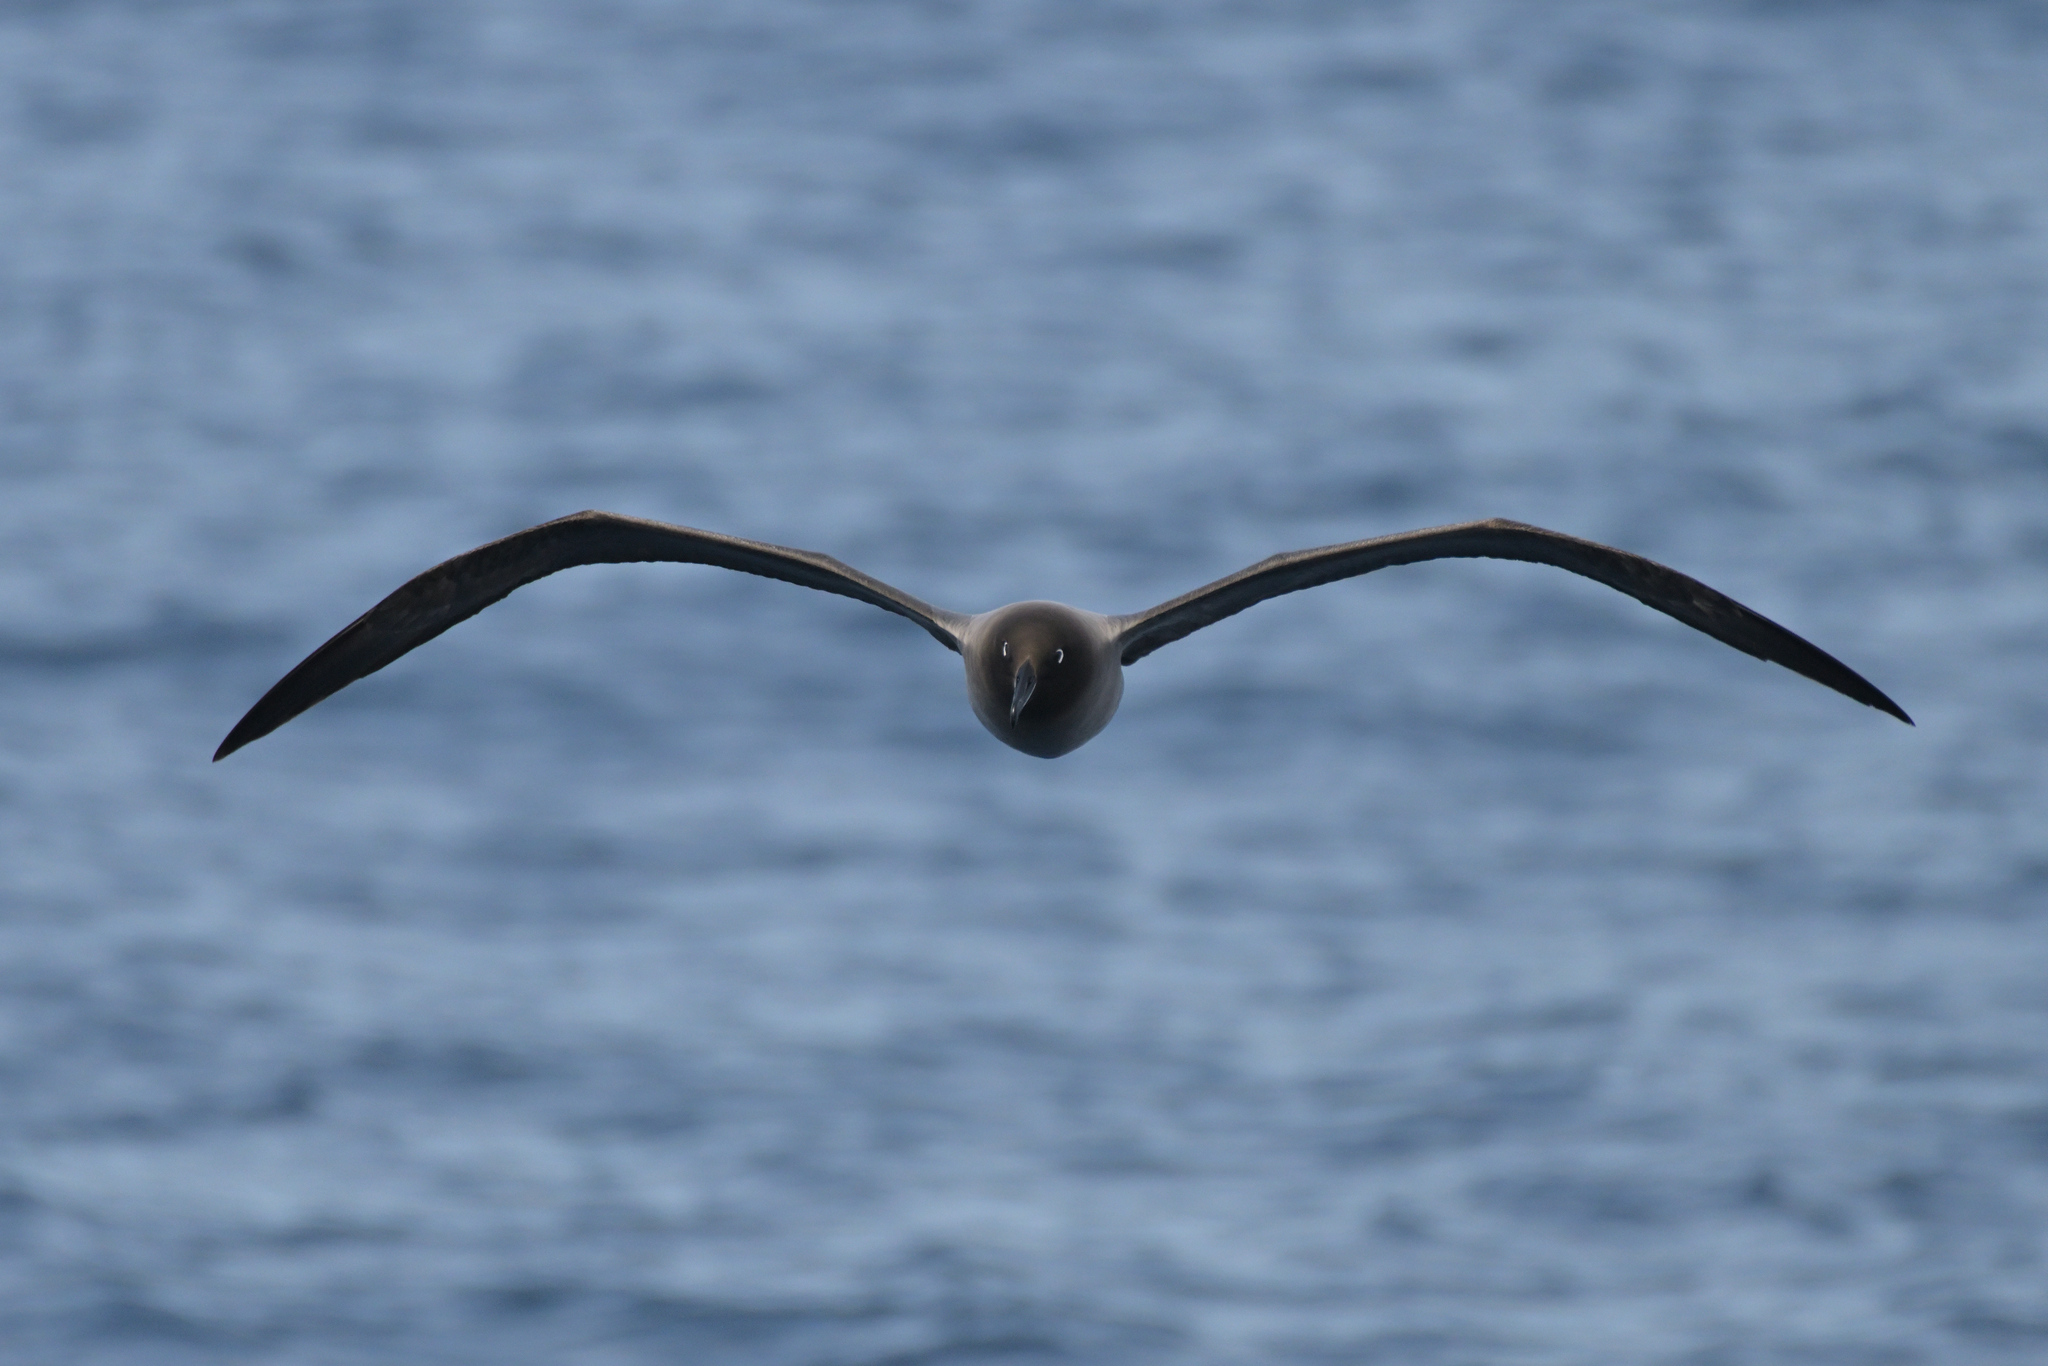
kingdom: Animalia
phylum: Chordata
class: Aves
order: Procellariiformes
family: Diomedeidae
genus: Phoebetria
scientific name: Phoebetria palpebrata
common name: Light-mantled albatross
